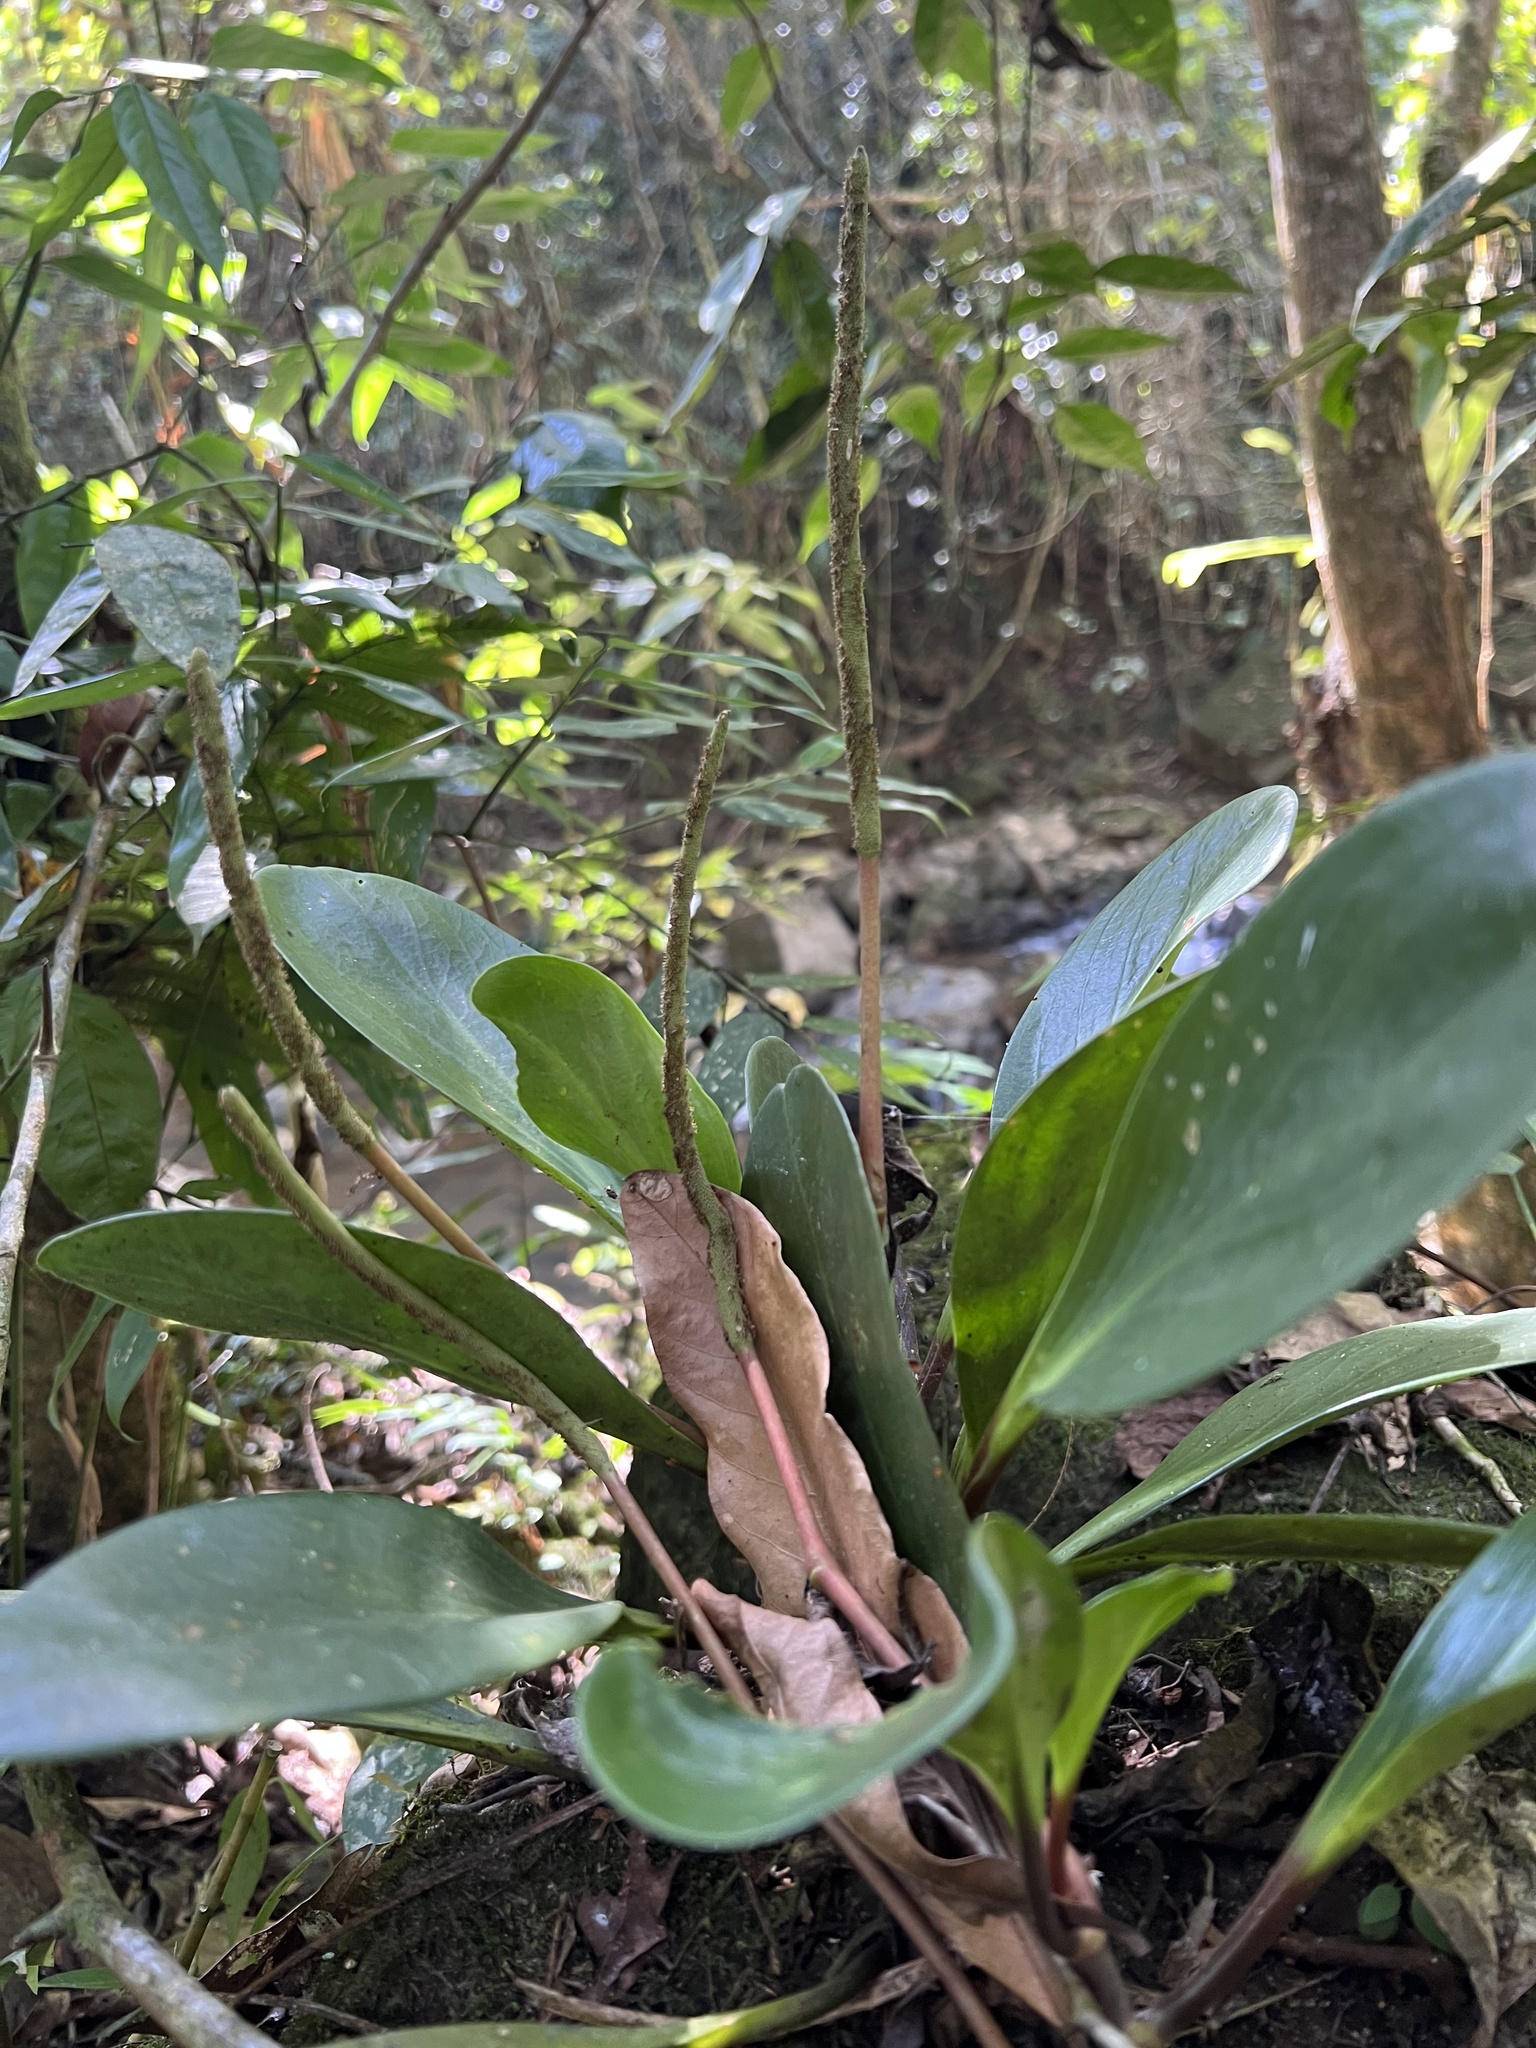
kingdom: Plantae
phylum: Tracheophyta
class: Magnoliopsida
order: Piperales
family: Piperaceae
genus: Peperomia
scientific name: Peperomia obtusifolia
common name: Baby rubberplant
